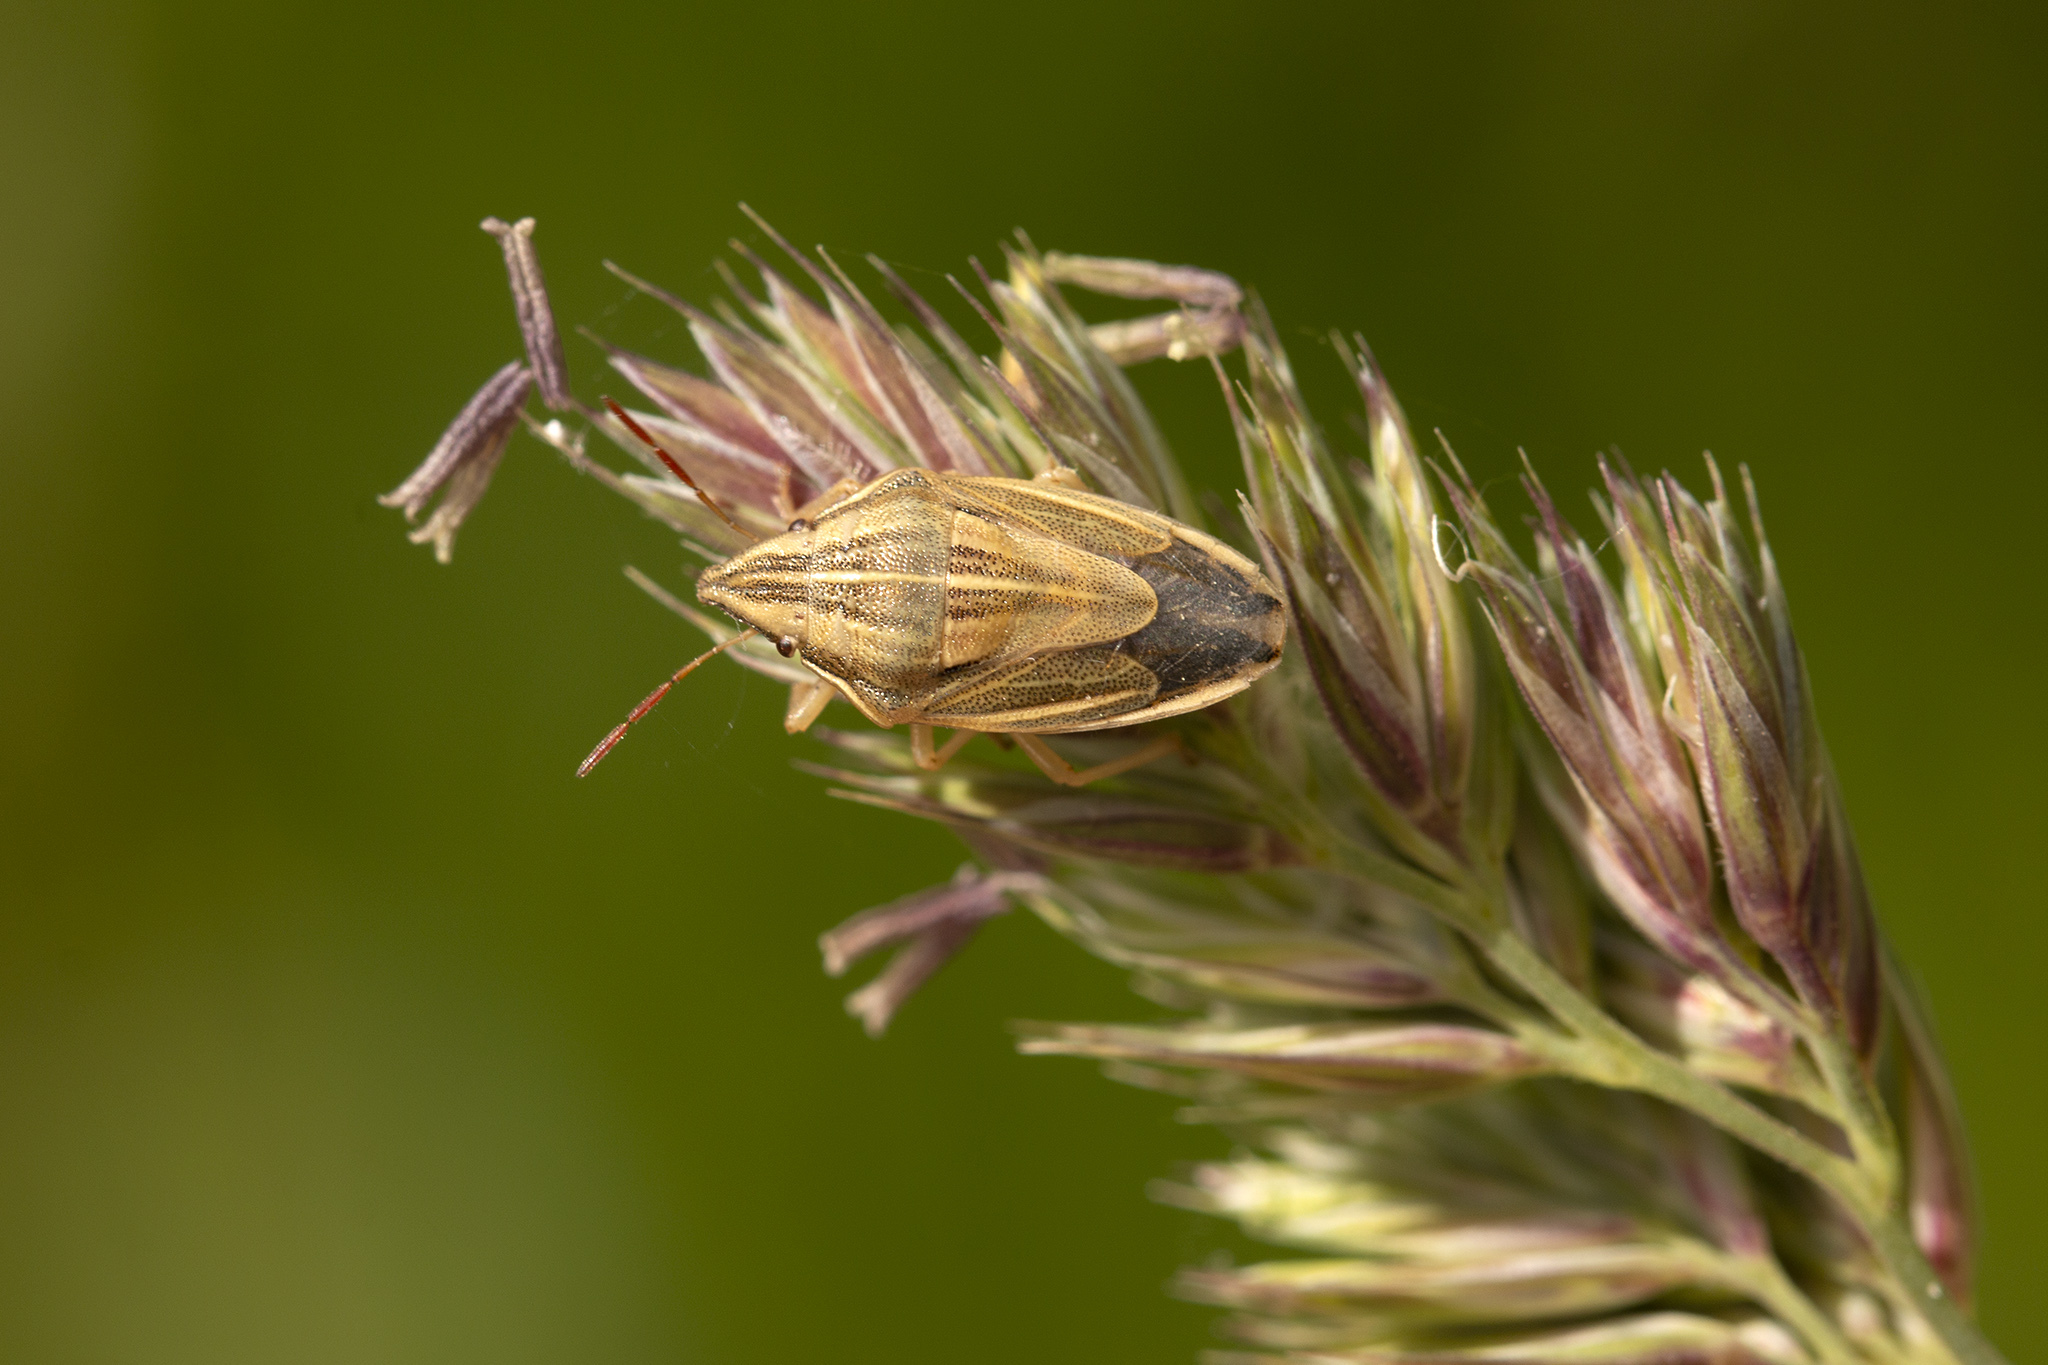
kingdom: Animalia
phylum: Arthropoda
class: Insecta
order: Hemiptera
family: Pentatomidae
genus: Aelia
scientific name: Aelia acuminata
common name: Bishop's mitre
